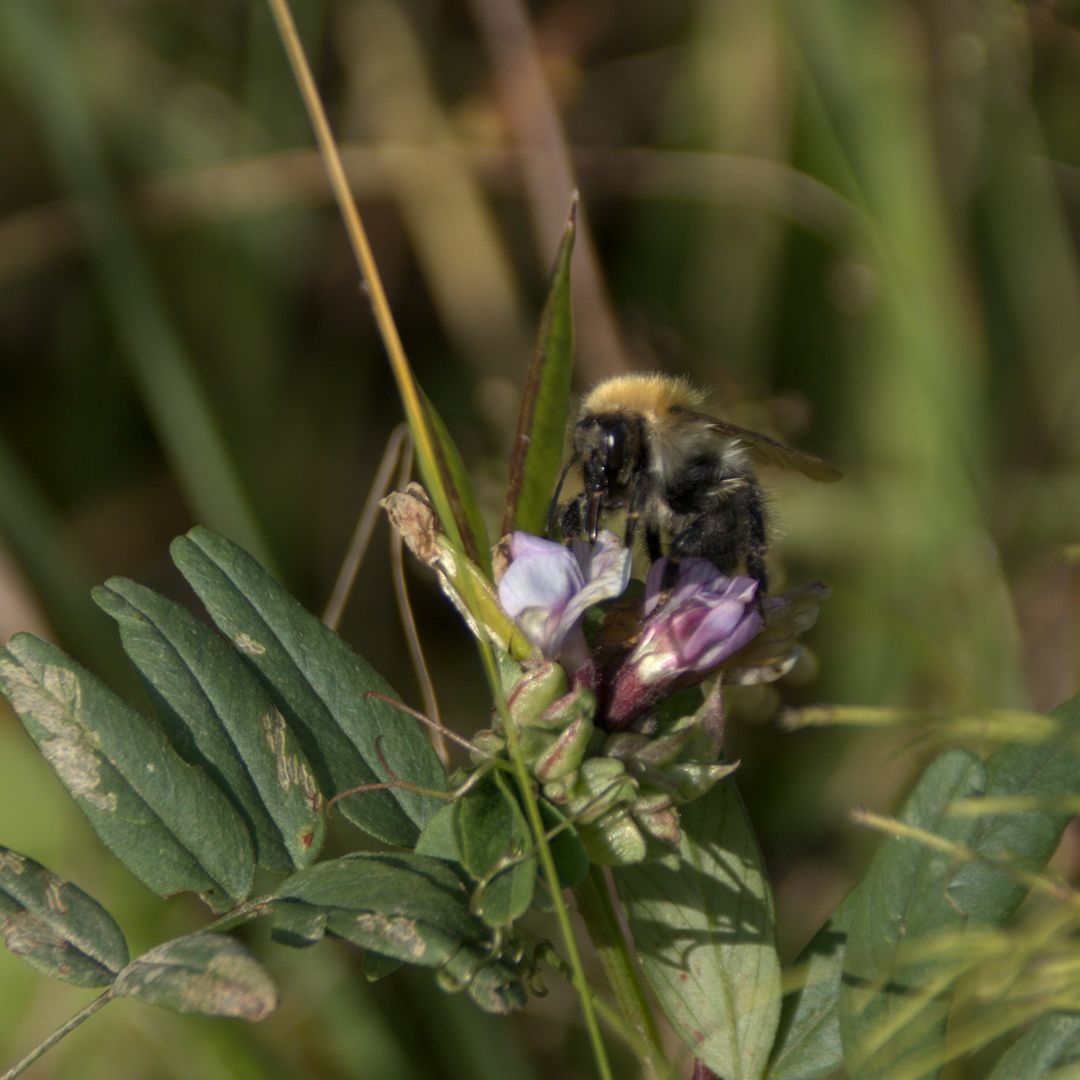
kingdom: Animalia
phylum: Arthropoda
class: Insecta
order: Hymenoptera
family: Apidae
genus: Bombus
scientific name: Bombus
